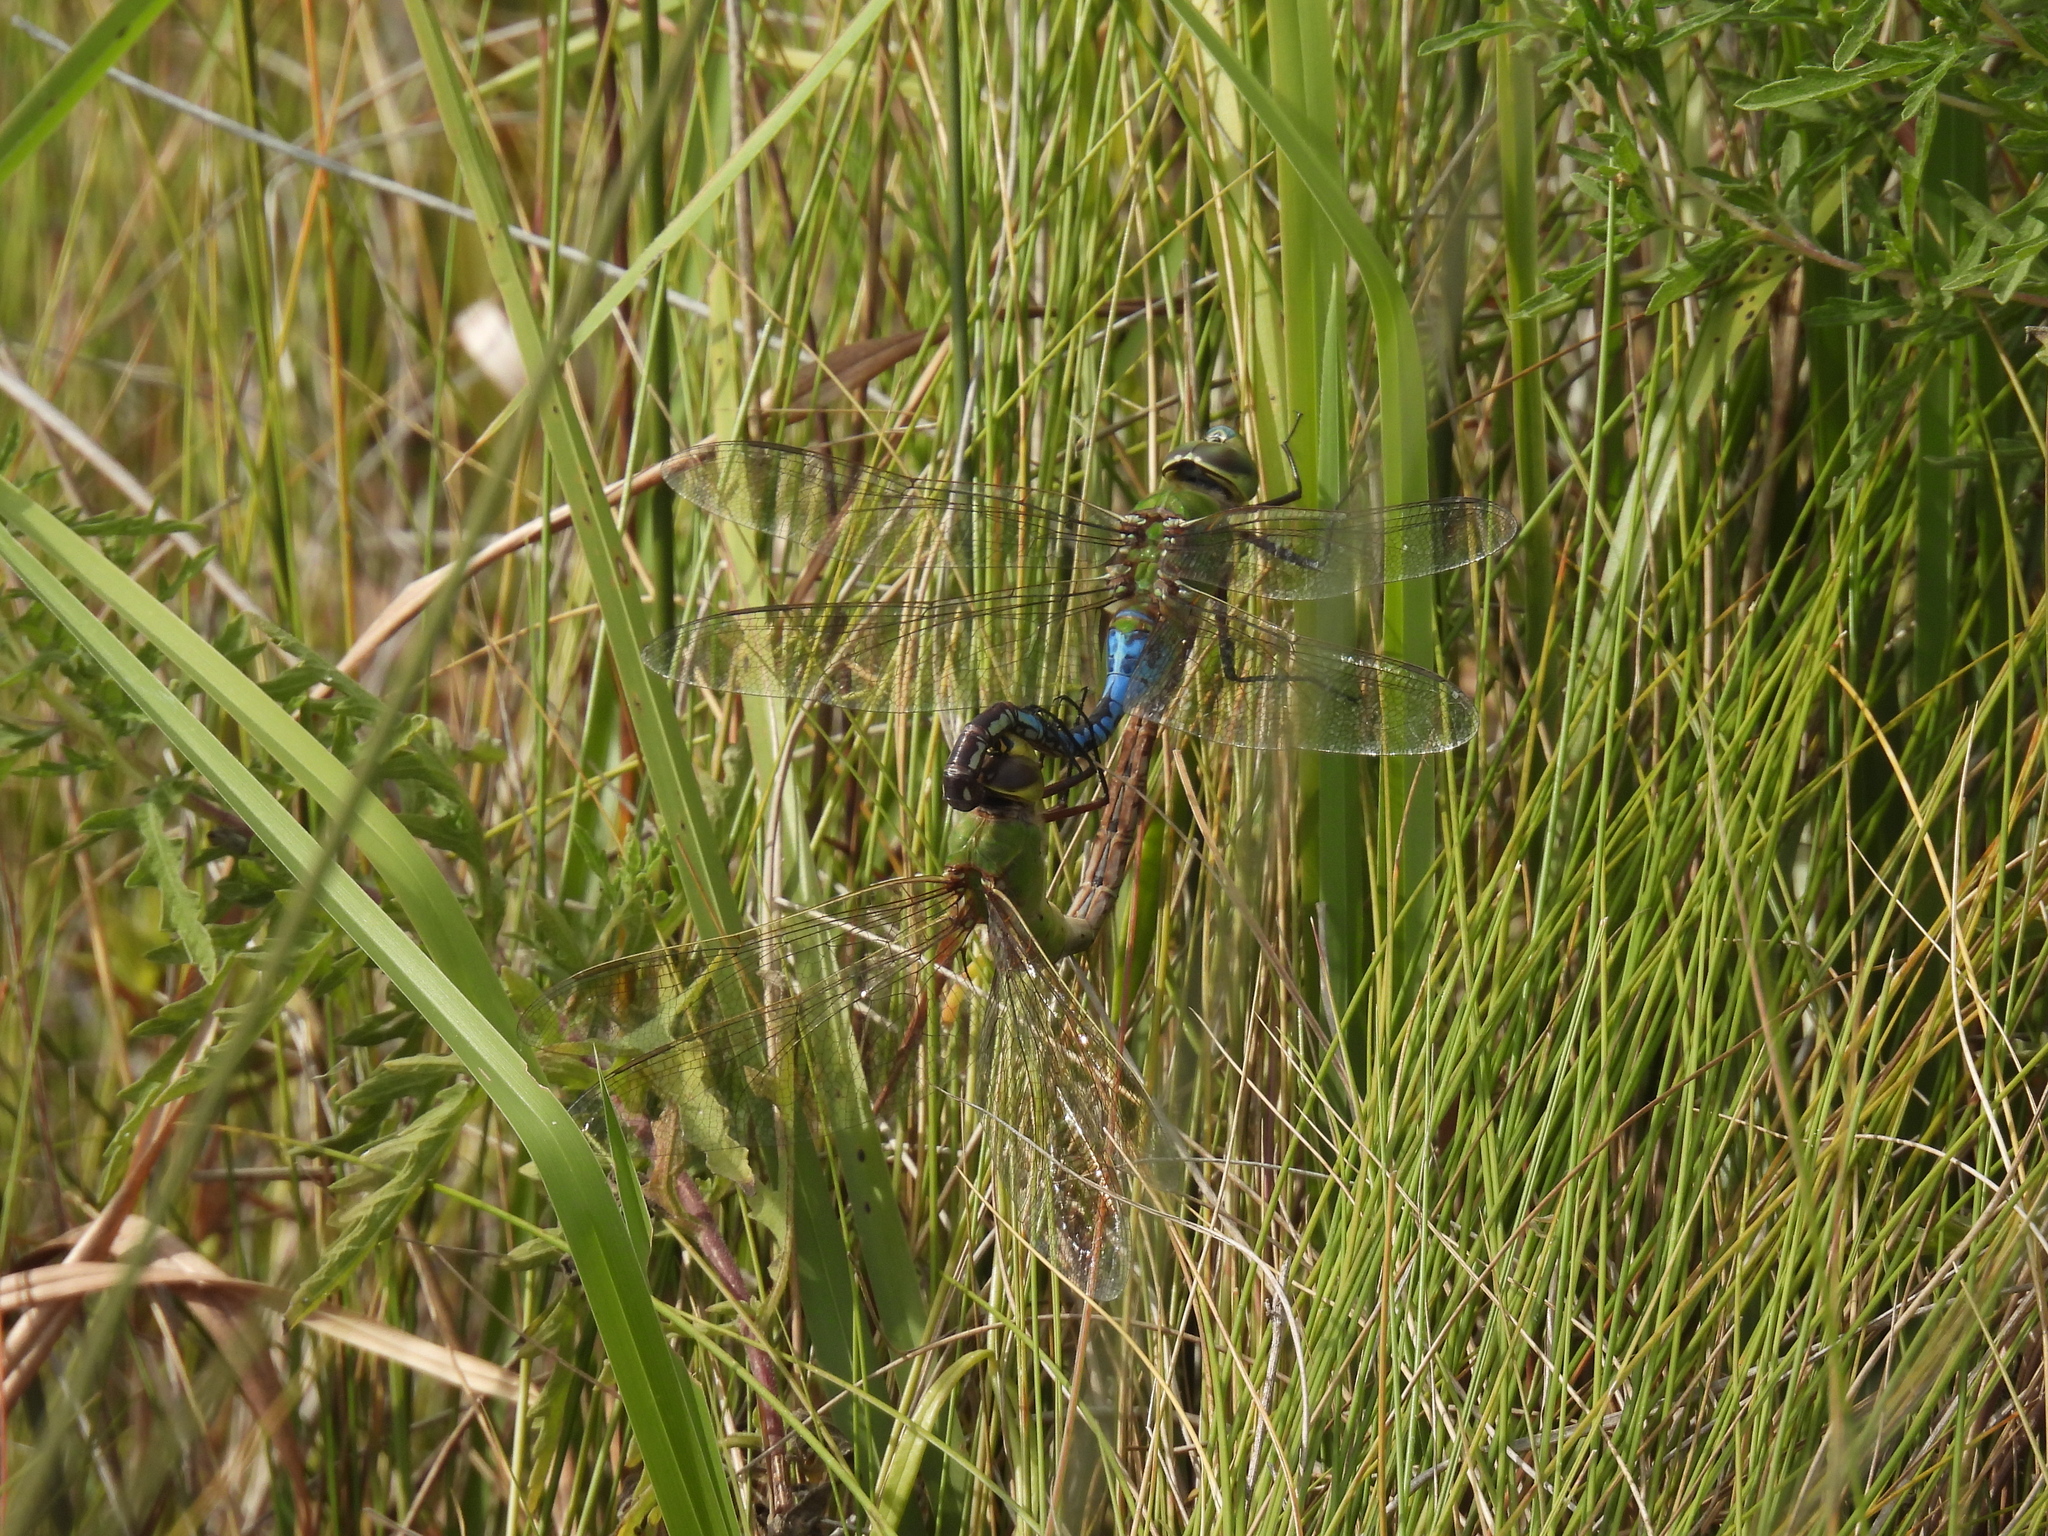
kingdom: Animalia
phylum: Arthropoda
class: Insecta
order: Odonata
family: Aeshnidae
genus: Anax
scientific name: Anax junius
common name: Common green darner
